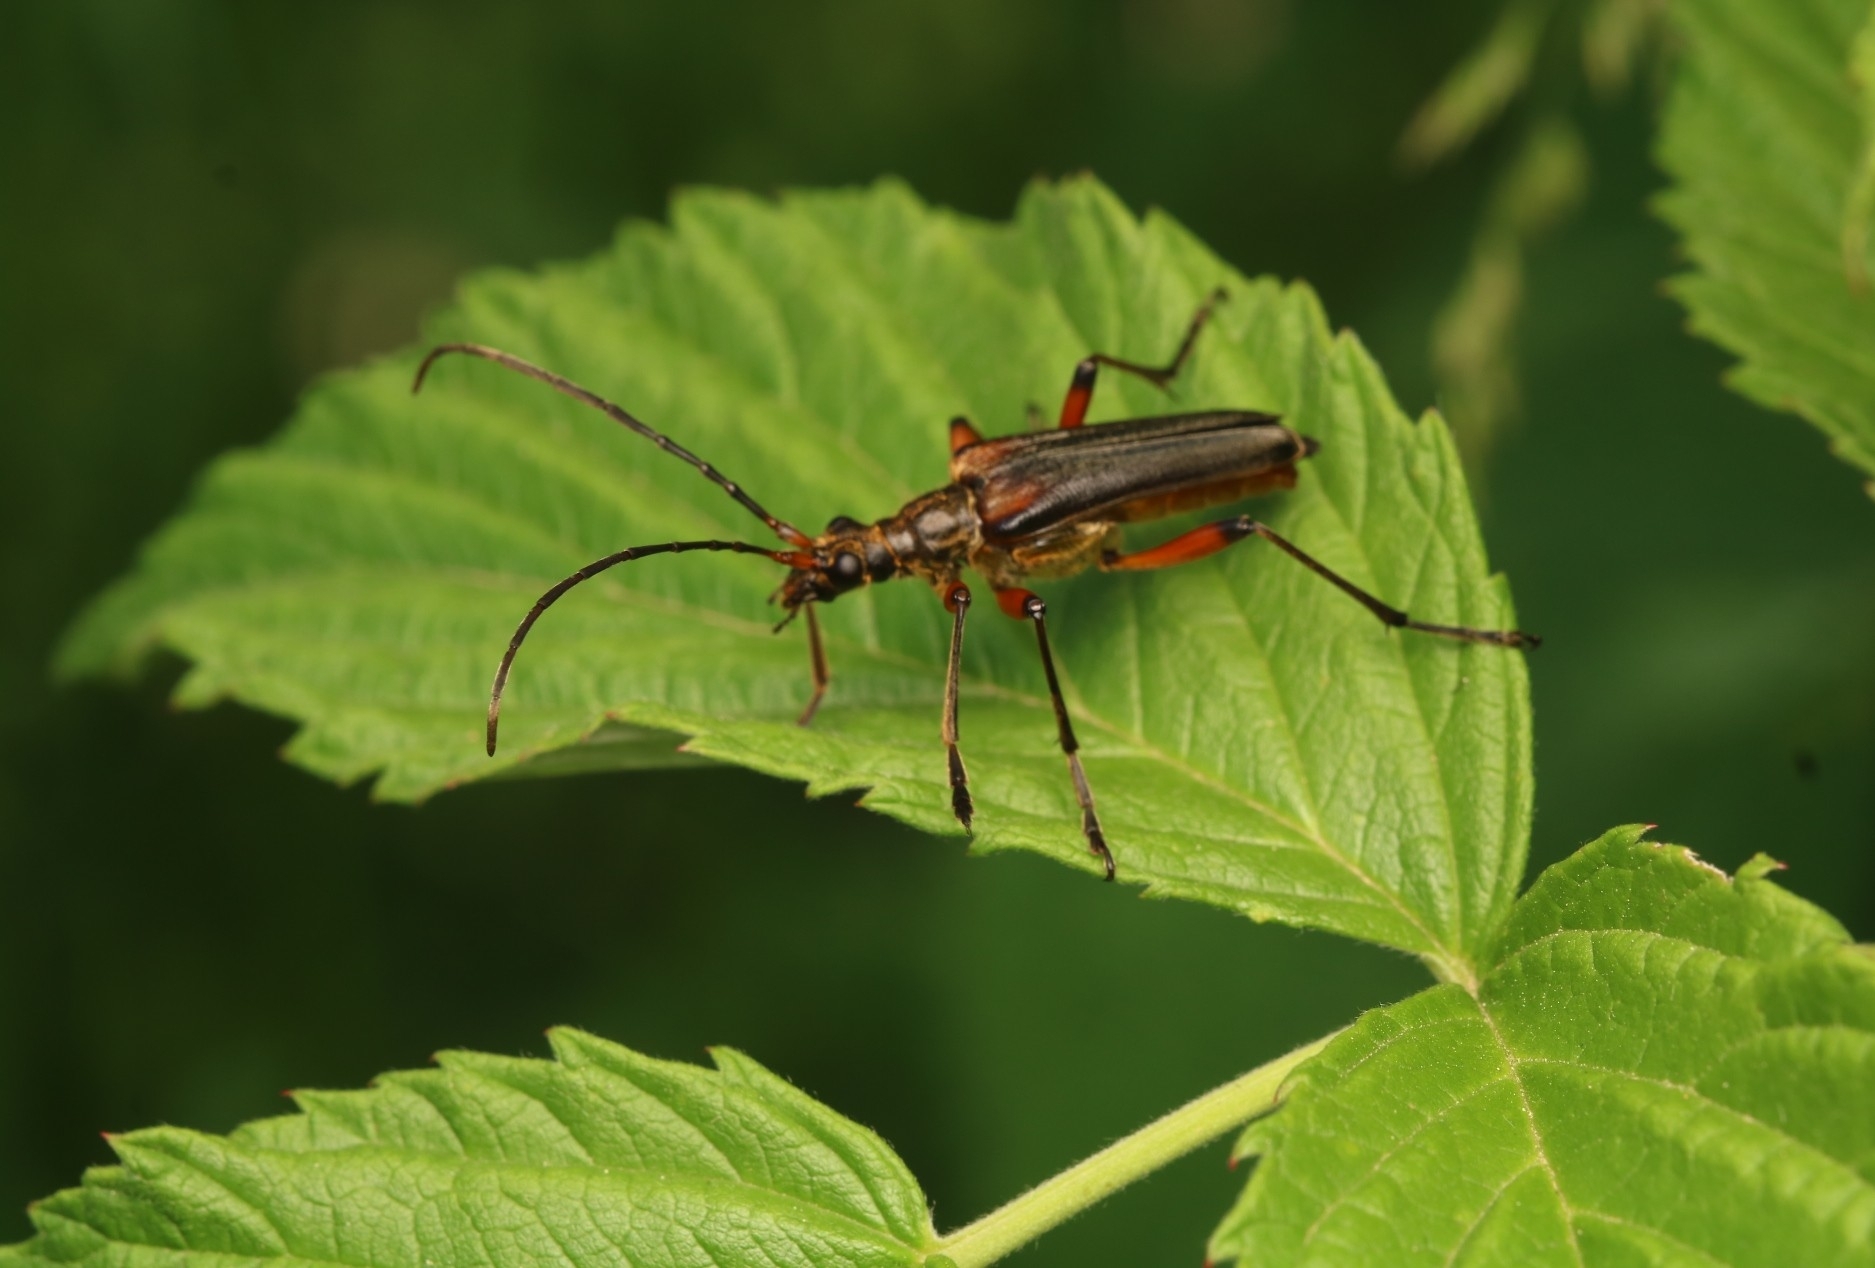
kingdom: Animalia
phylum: Arthropoda
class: Insecta
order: Coleoptera
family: Cerambycidae
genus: Stenocorus
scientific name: Stenocorus meridianus
